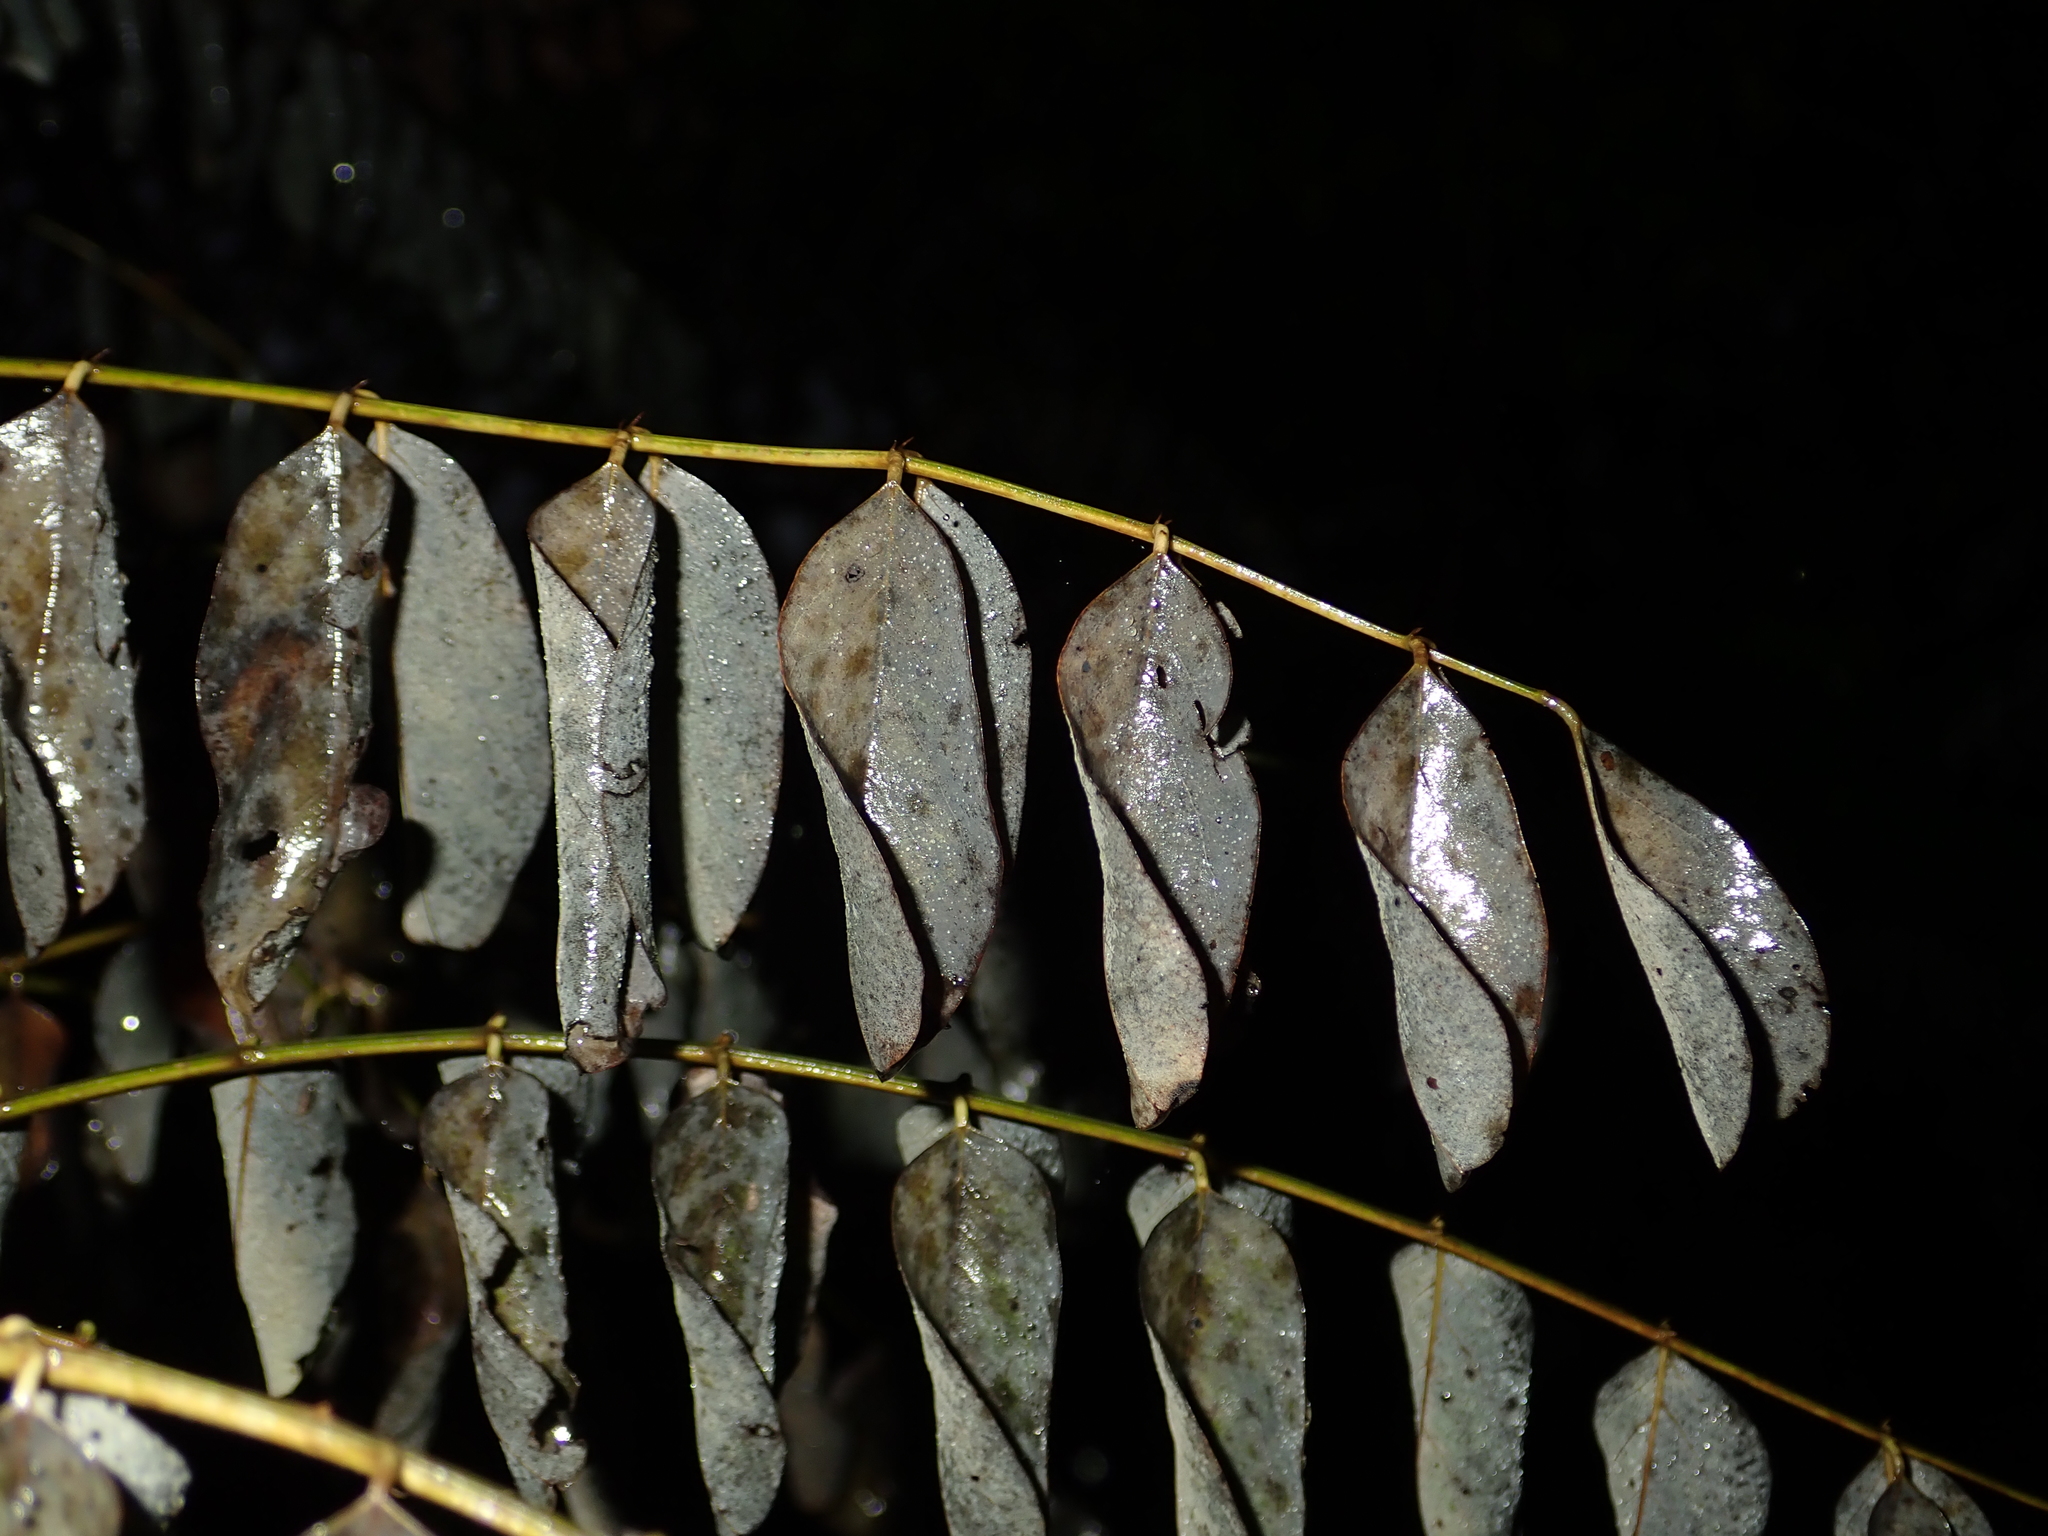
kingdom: Plantae
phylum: Tracheophyta
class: Magnoliopsida
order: Fabales
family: Fabaceae
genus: Robinia
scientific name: Robinia pseudoacacia
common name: Black locust
